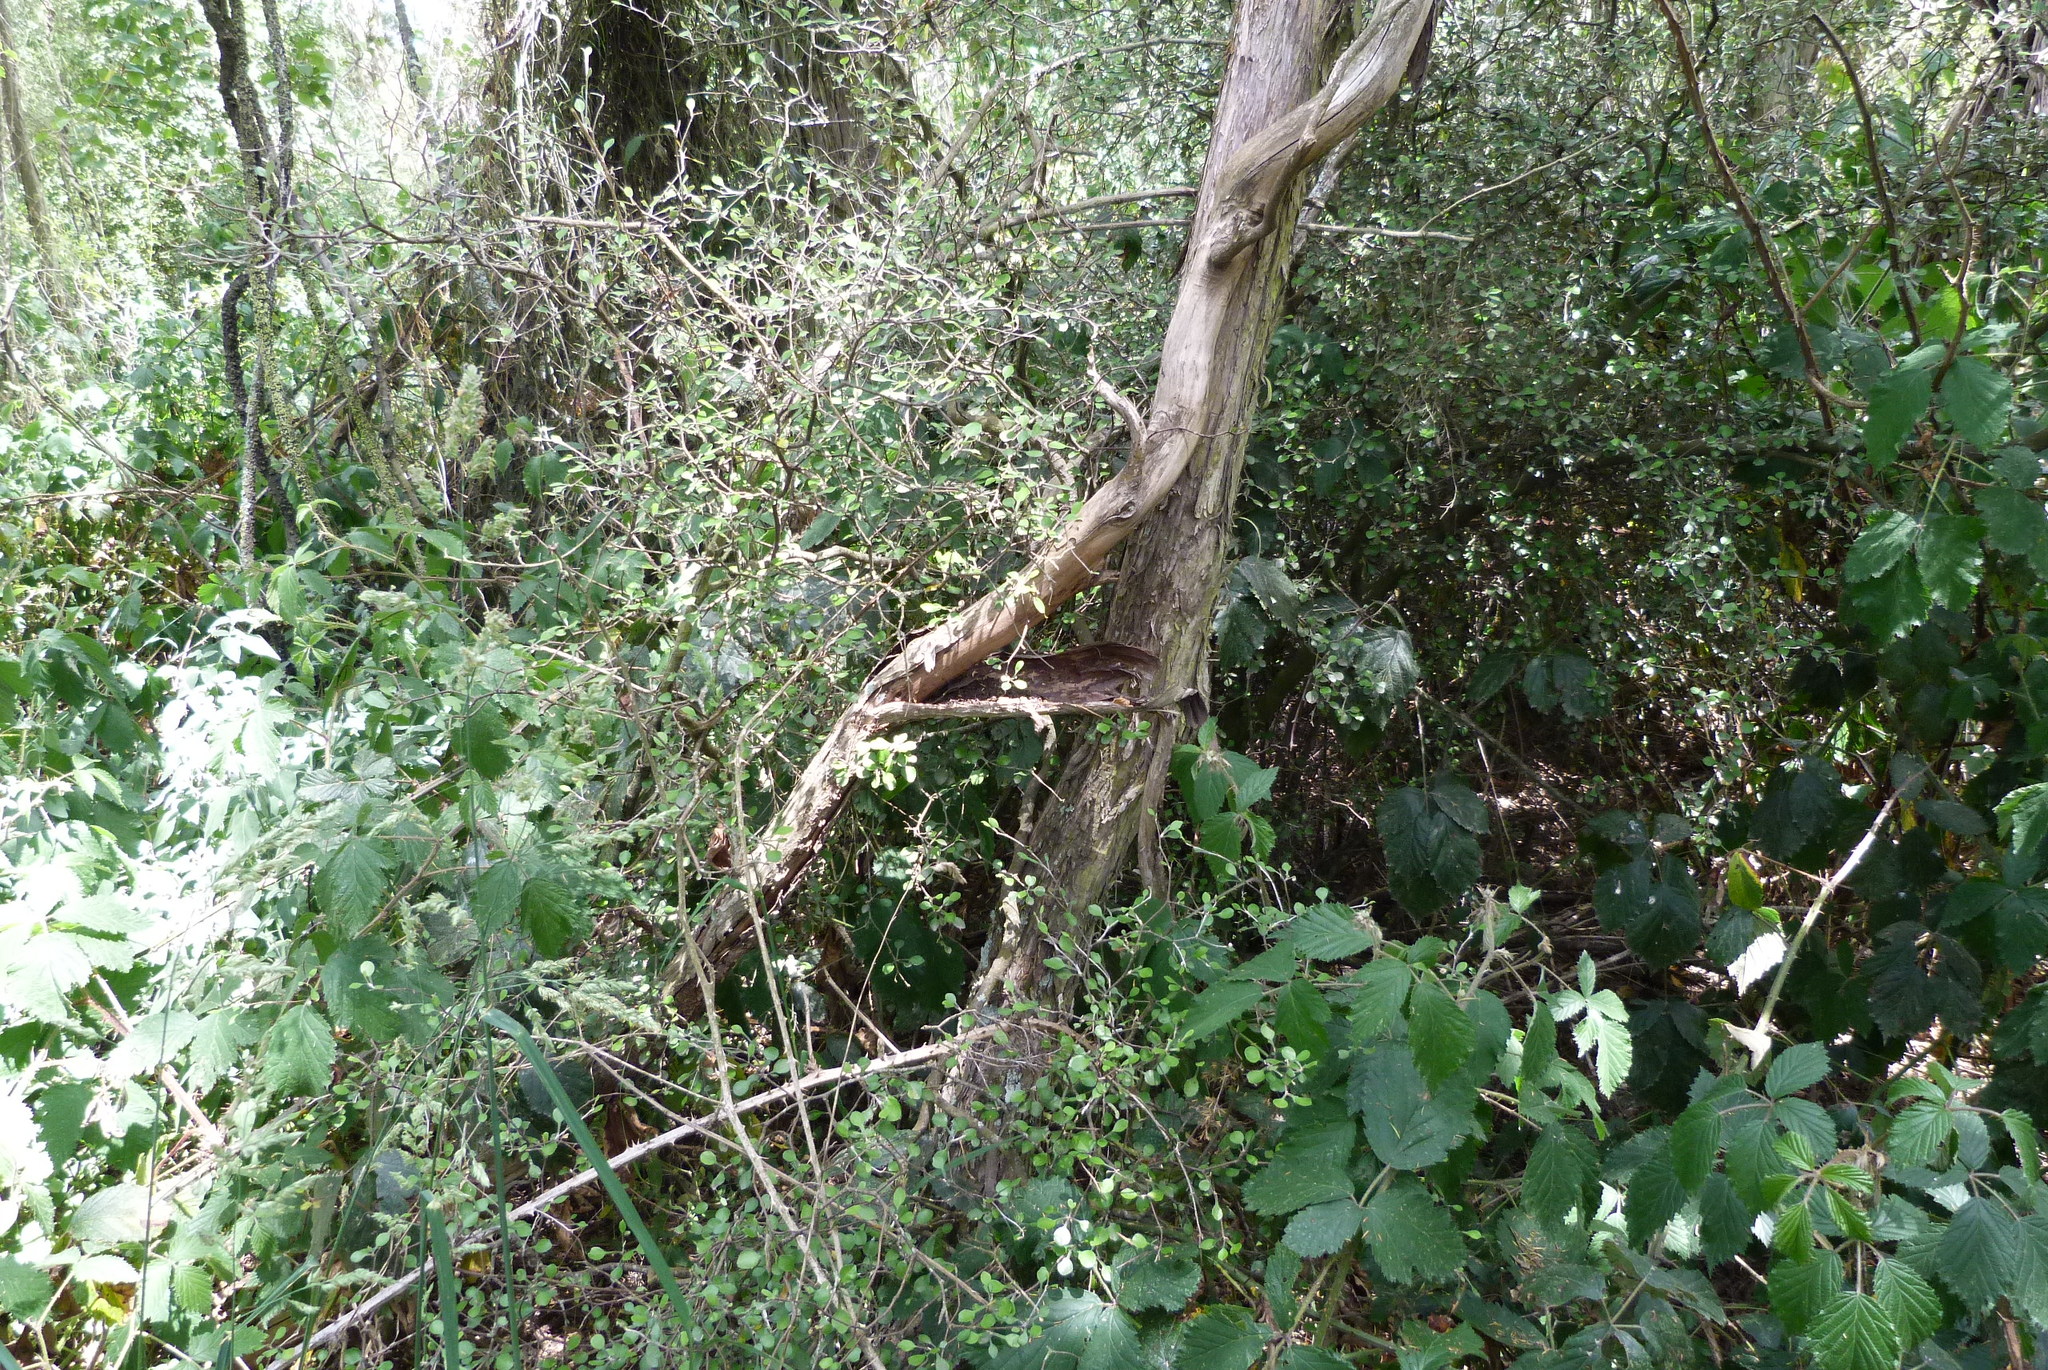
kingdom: Plantae
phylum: Tracheophyta
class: Magnoliopsida
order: Asterales
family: Argophyllaceae
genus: Corokia
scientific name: Corokia cotoneaster
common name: Wire nettingbush
